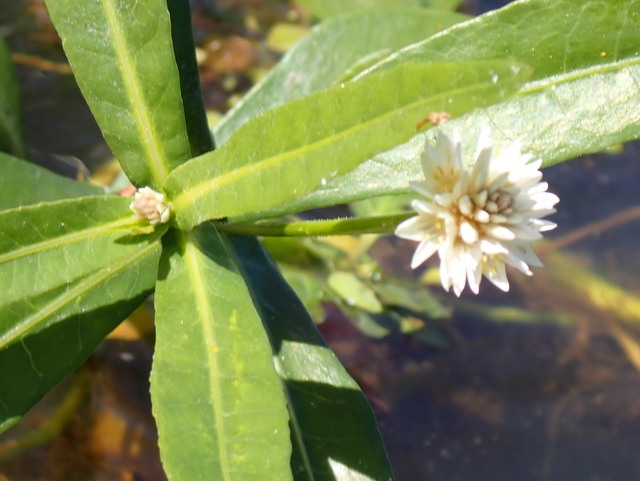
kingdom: Plantae
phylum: Tracheophyta
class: Magnoliopsida
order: Caryophyllales
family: Amaranthaceae
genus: Alternanthera
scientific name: Alternanthera philoxeroides
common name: Alligatorweed
